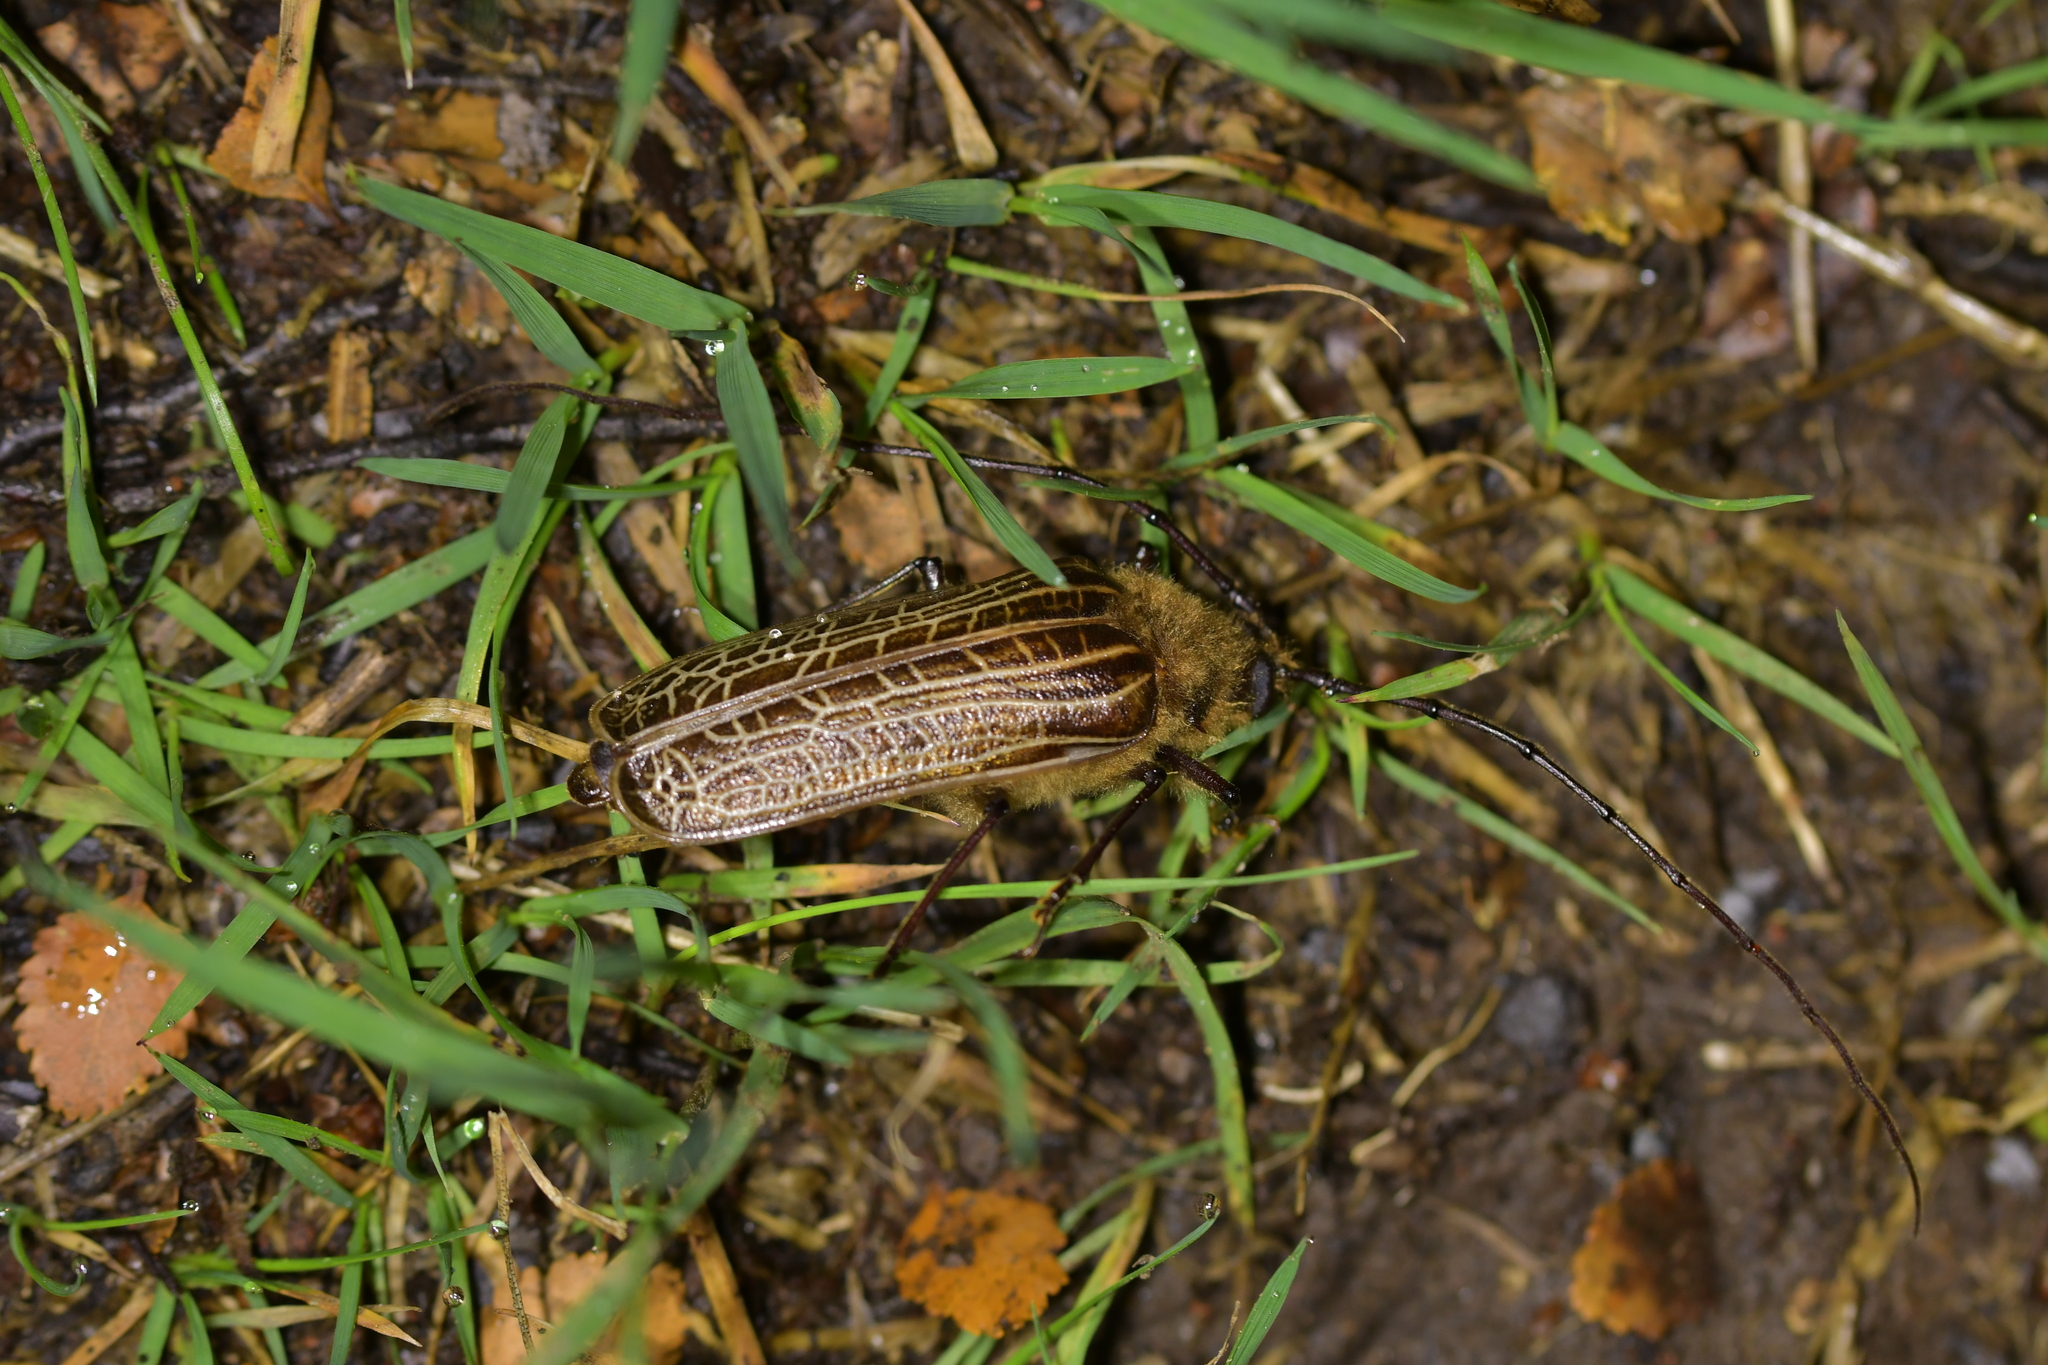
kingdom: Animalia
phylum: Arthropoda
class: Insecta
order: Coleoptera
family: Cerambycidae
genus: Prionoplus
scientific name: Prionoplus reticularis
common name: Huhu beetle
